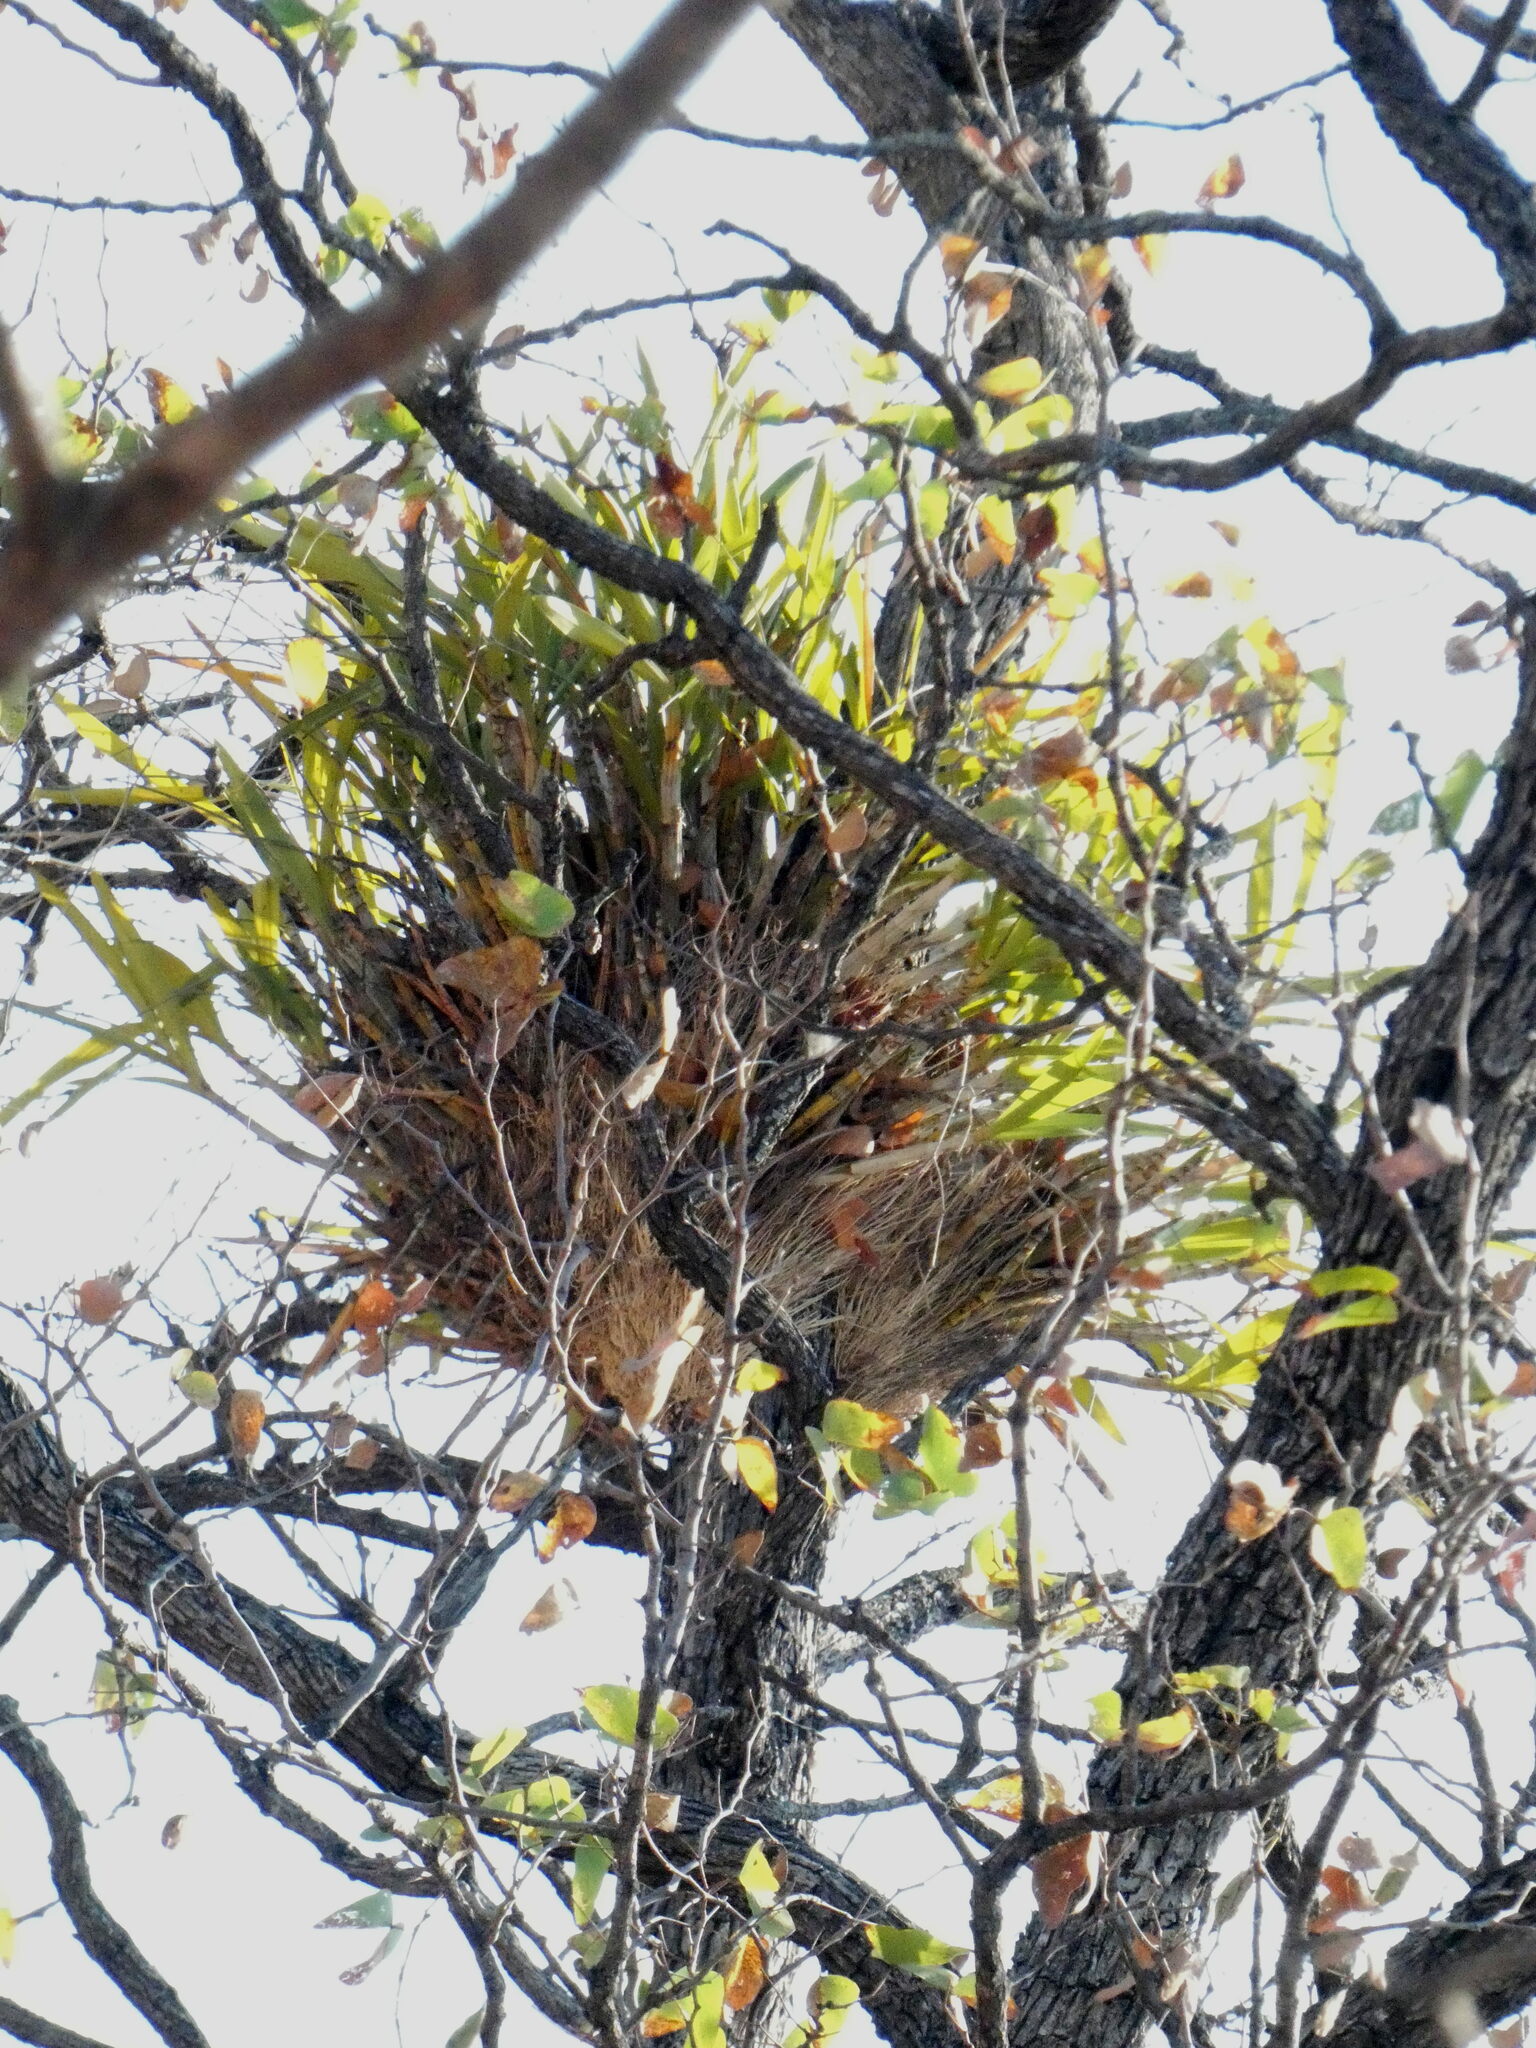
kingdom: Plantae
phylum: Tracheophyta
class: Liliopsida
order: Asparagales
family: Orchidaceae
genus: Ansellia
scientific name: Ansellia africana
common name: African ansellia
